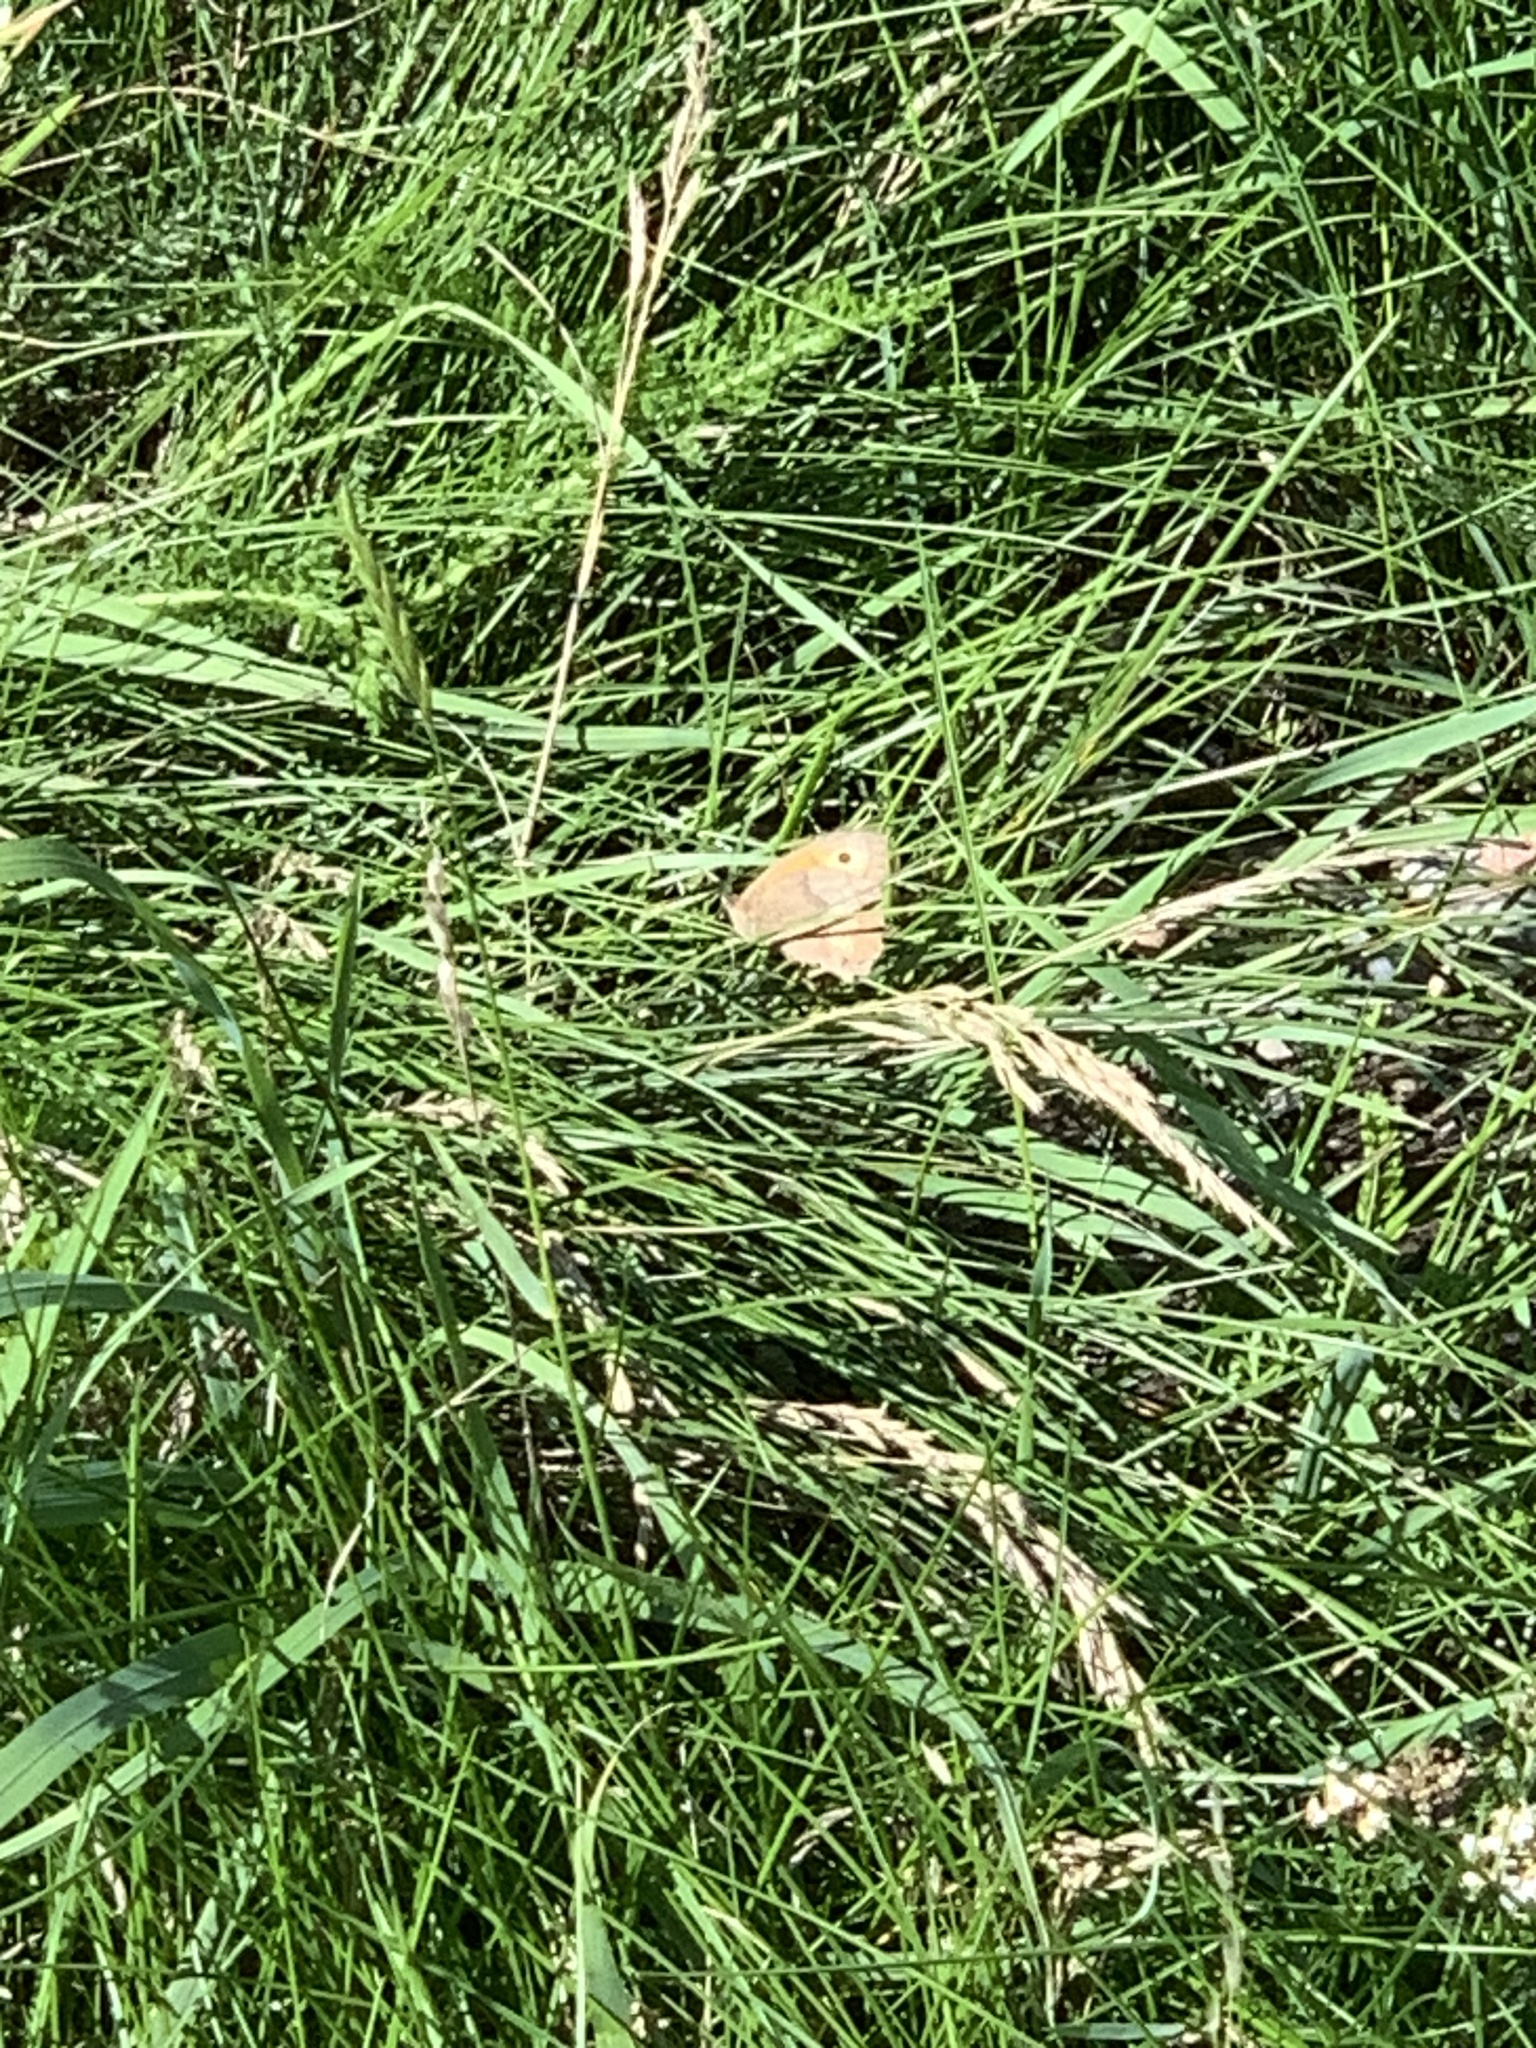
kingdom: Animalia
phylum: Arthropoda
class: Insecta
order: Lepidoptera
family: Nymphalidae
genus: Maniola
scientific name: Maniola jurtina
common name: Meadow brown
